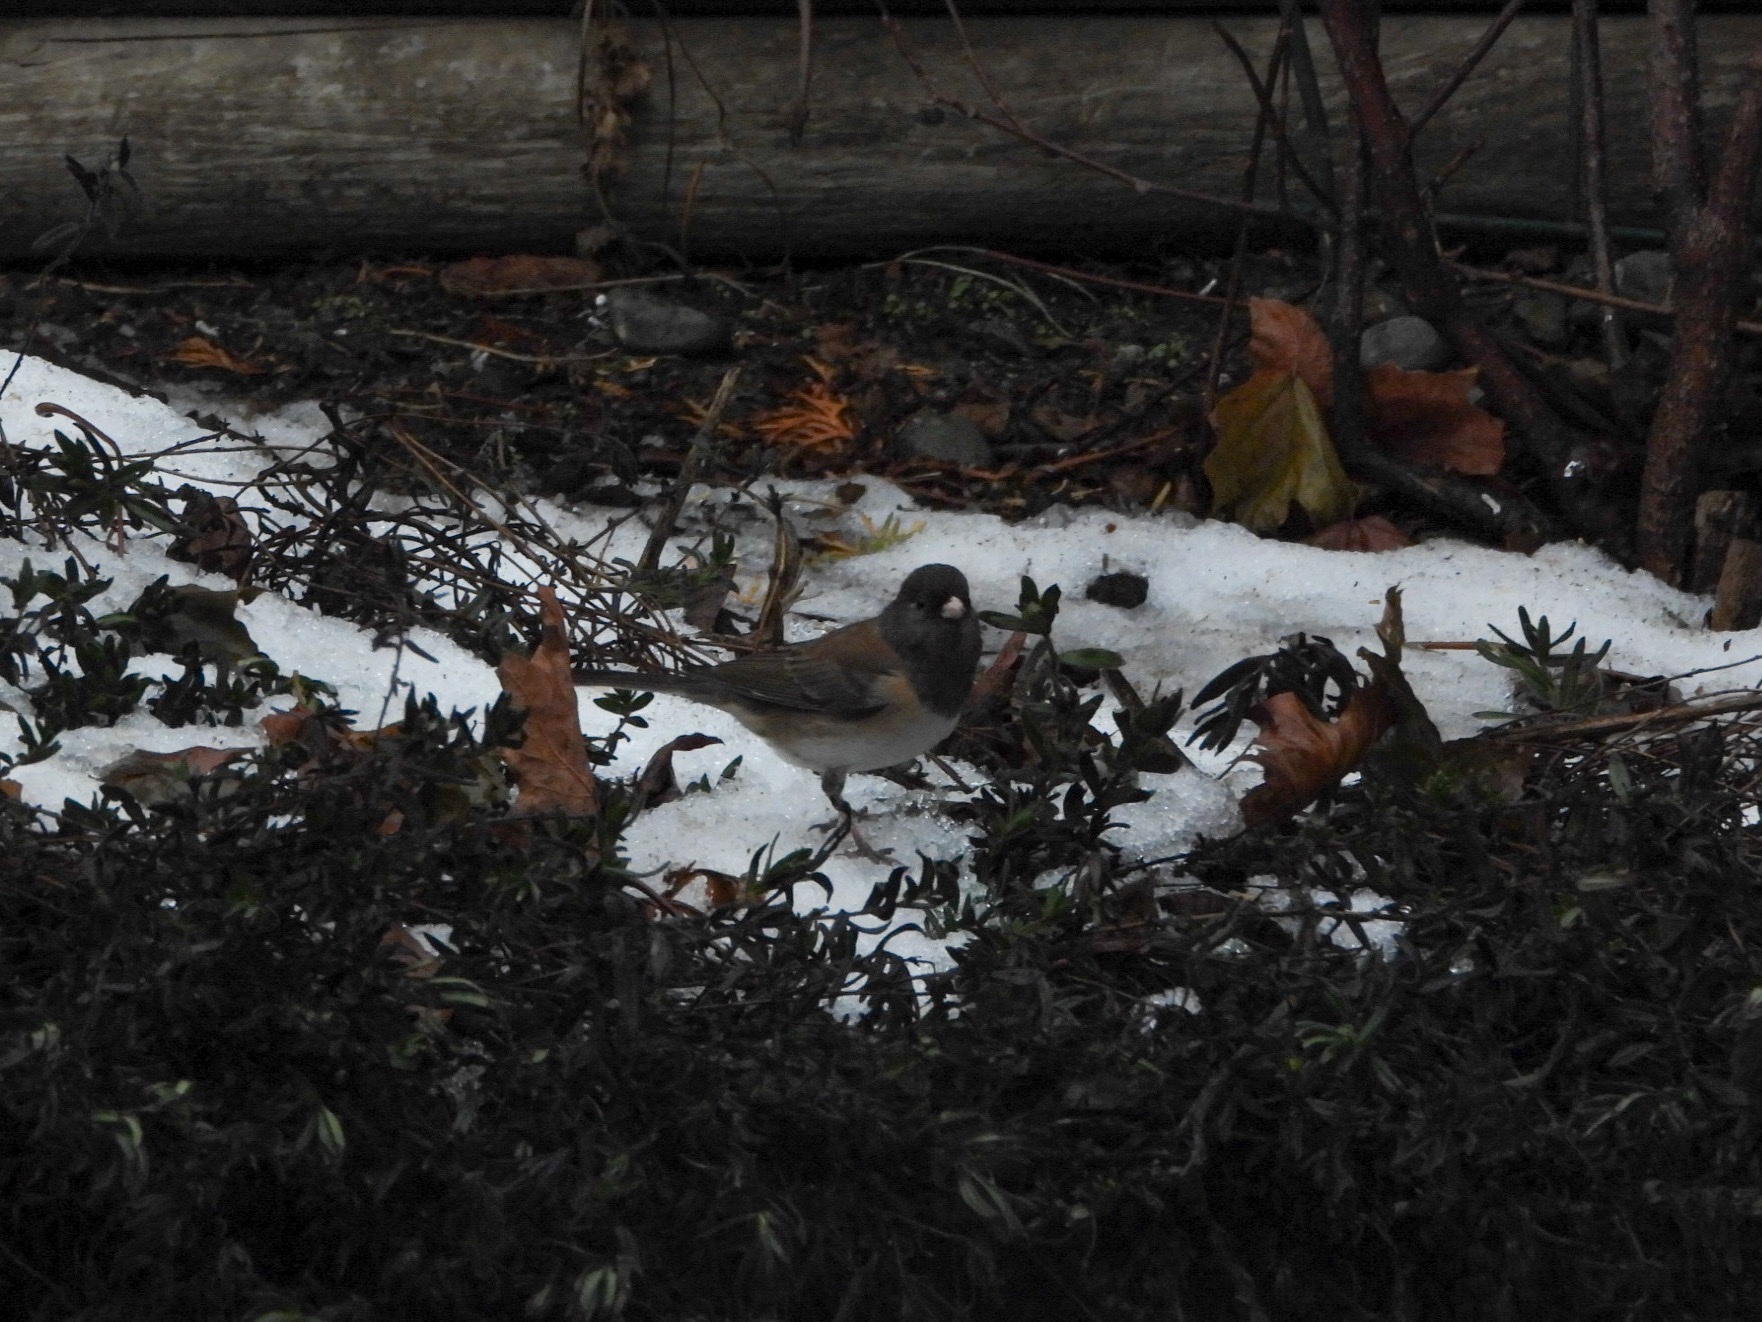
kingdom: Animalia
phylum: Chordata
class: Aves
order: Passeriformes
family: Passerellidae
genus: Junco
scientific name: Junco hyemalis
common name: Dark-eyed junco
